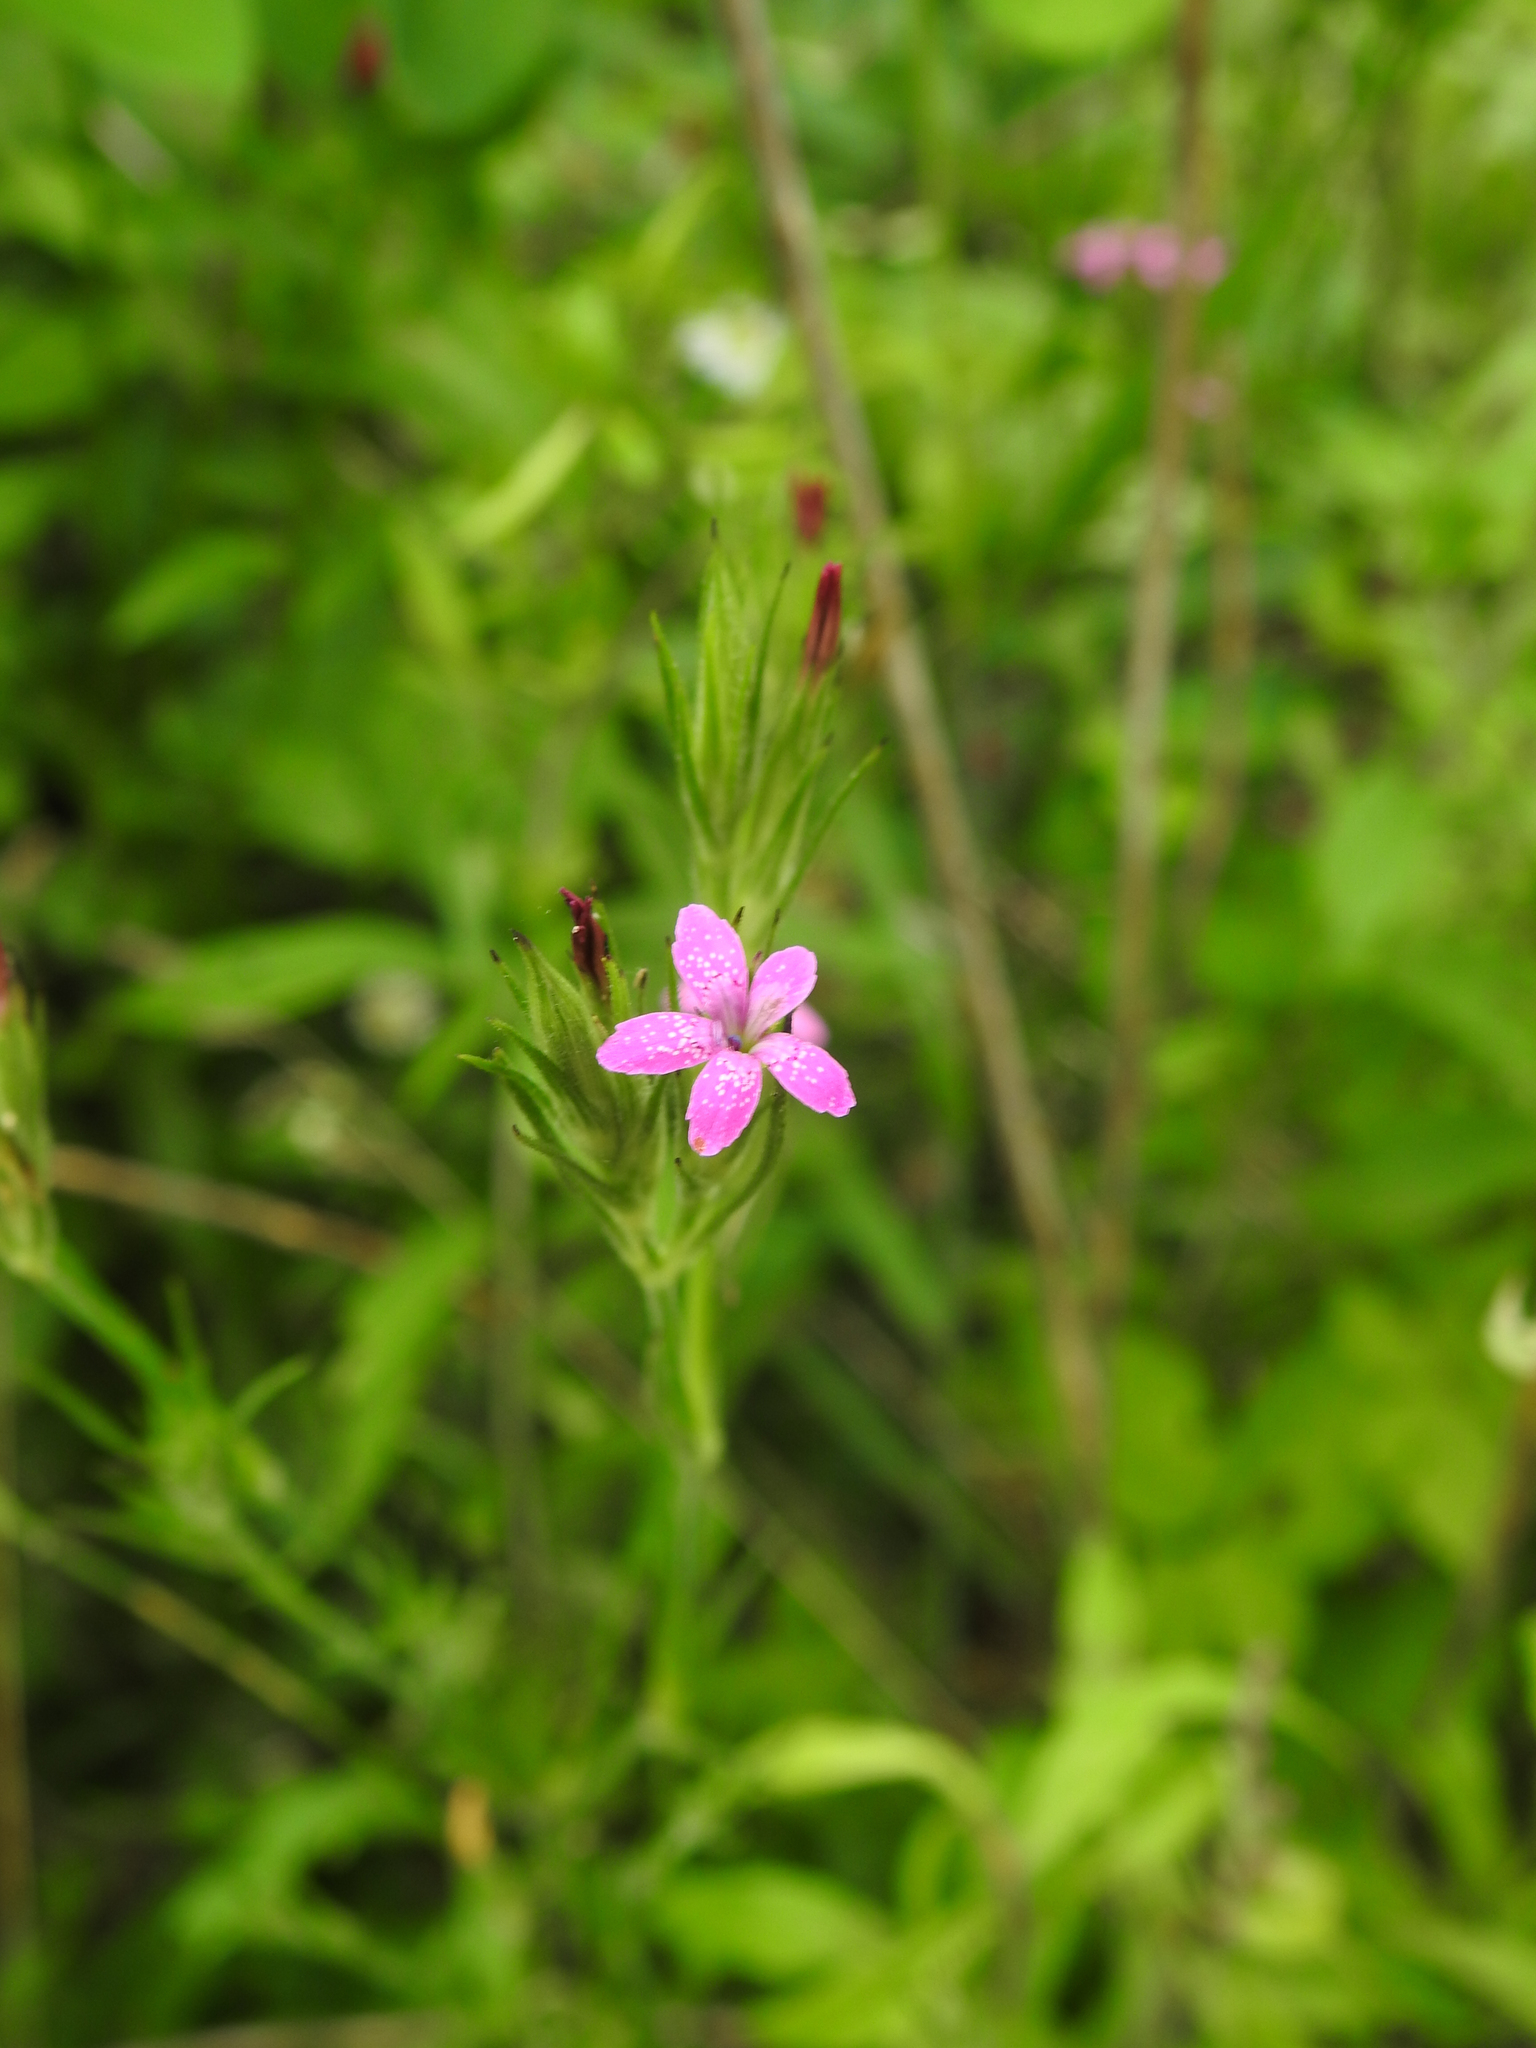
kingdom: Plantae
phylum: Tracheophyta
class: Magnoliopsida
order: Caryophyllales
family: Caryophyllaceae
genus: Dianthus
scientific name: Dianthus armeria
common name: Deptford pink
